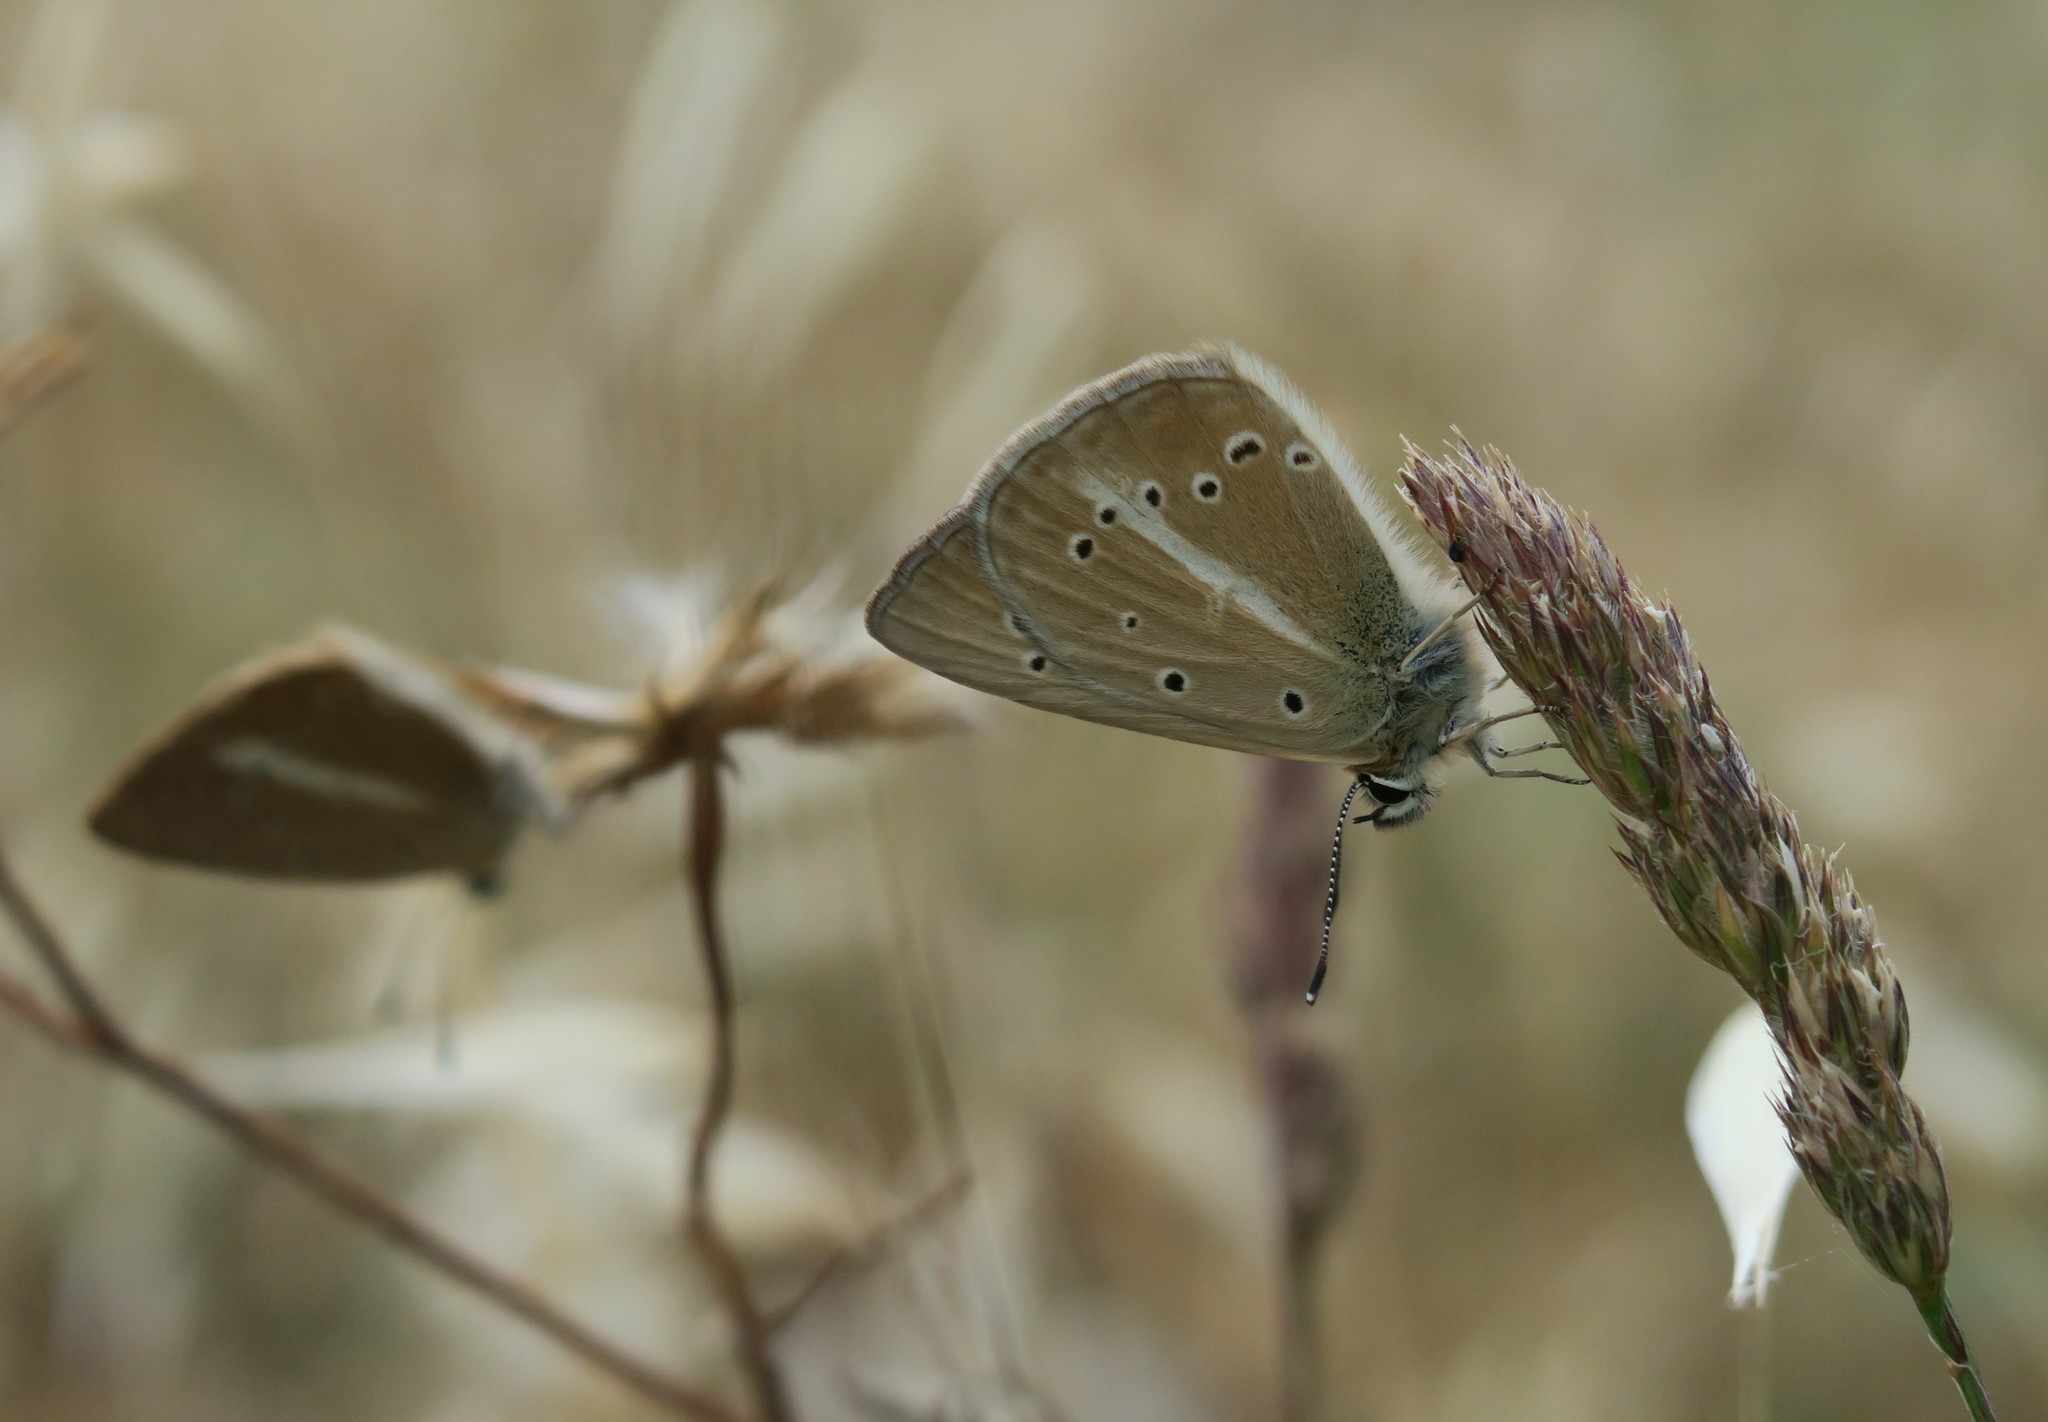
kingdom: Animalia
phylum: Arthropoda
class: Insecta
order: Lepidoptera
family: Lycaenidae
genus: Polyommatus
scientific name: Polyommatus ripartii
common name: Ripart's anomalous blue
